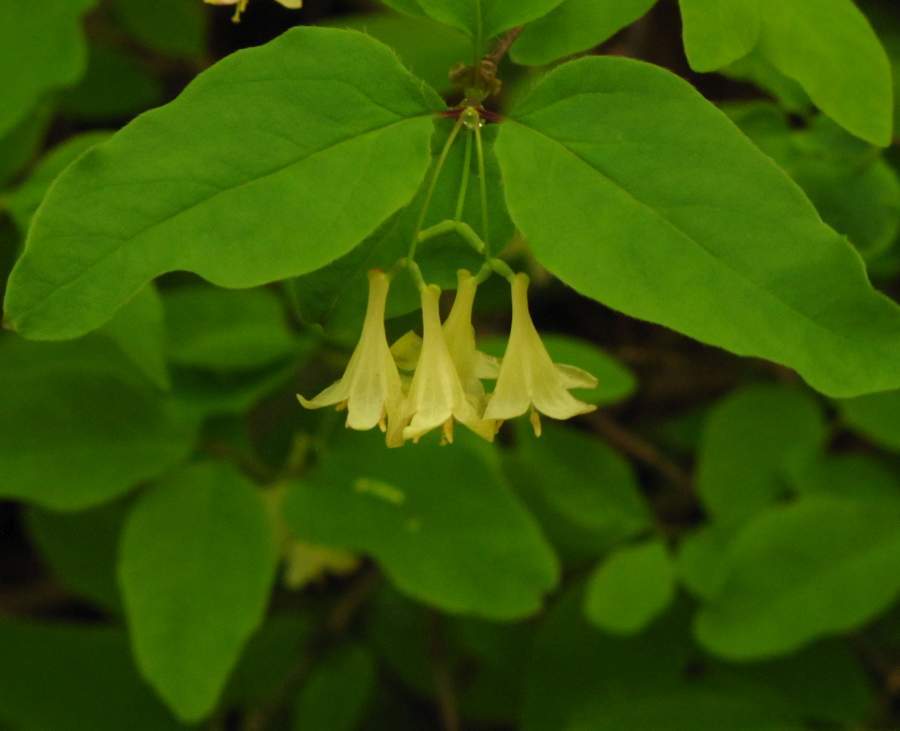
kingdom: Plantae
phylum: Tracheophyta
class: Magnoliopsida
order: Dipsacales
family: Caprifoliaceae
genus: Lonicera
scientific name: Lonicera canadensis
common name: American fly-honeysuckle
